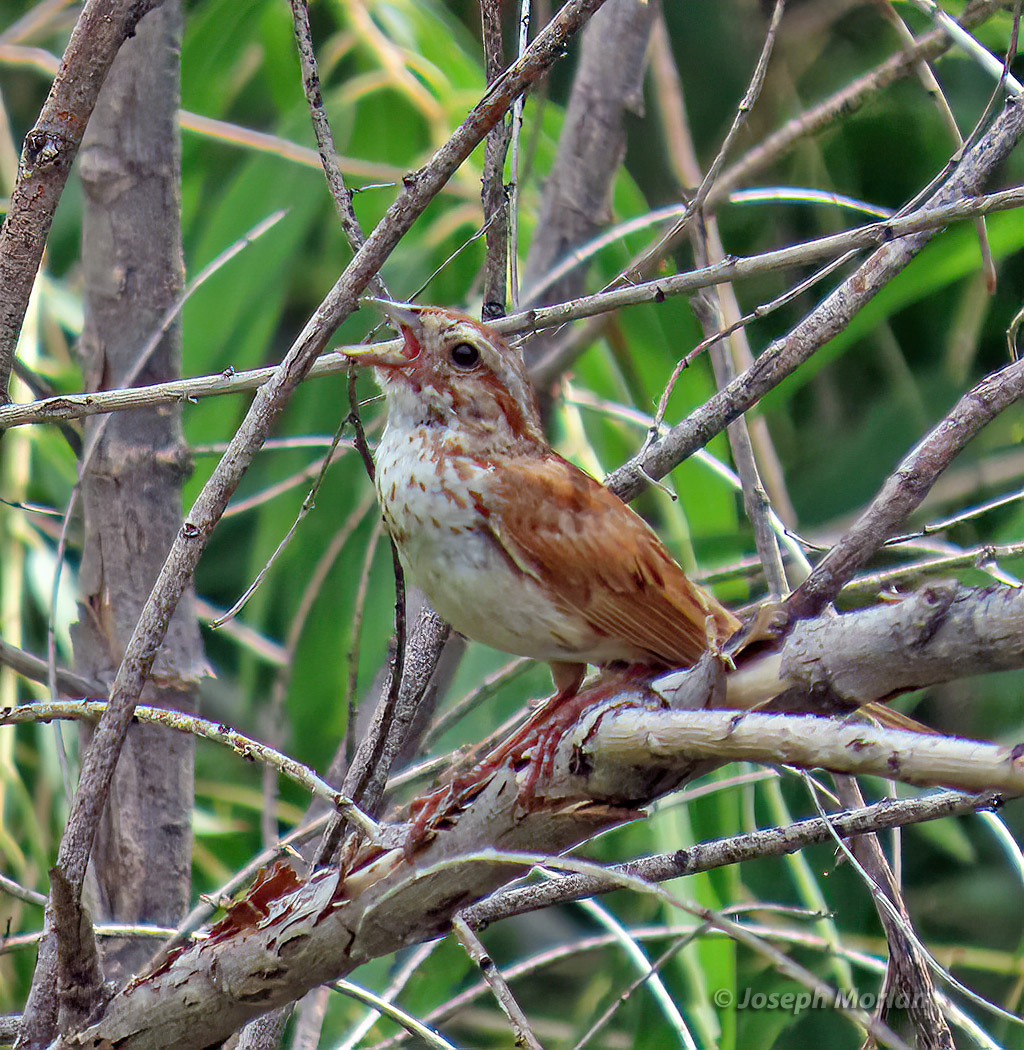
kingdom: Animalia
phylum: Chordata
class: Aves
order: Passeriformes
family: Passerellidae
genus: Melospiza
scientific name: Melospiza melodia
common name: Song sparrow
